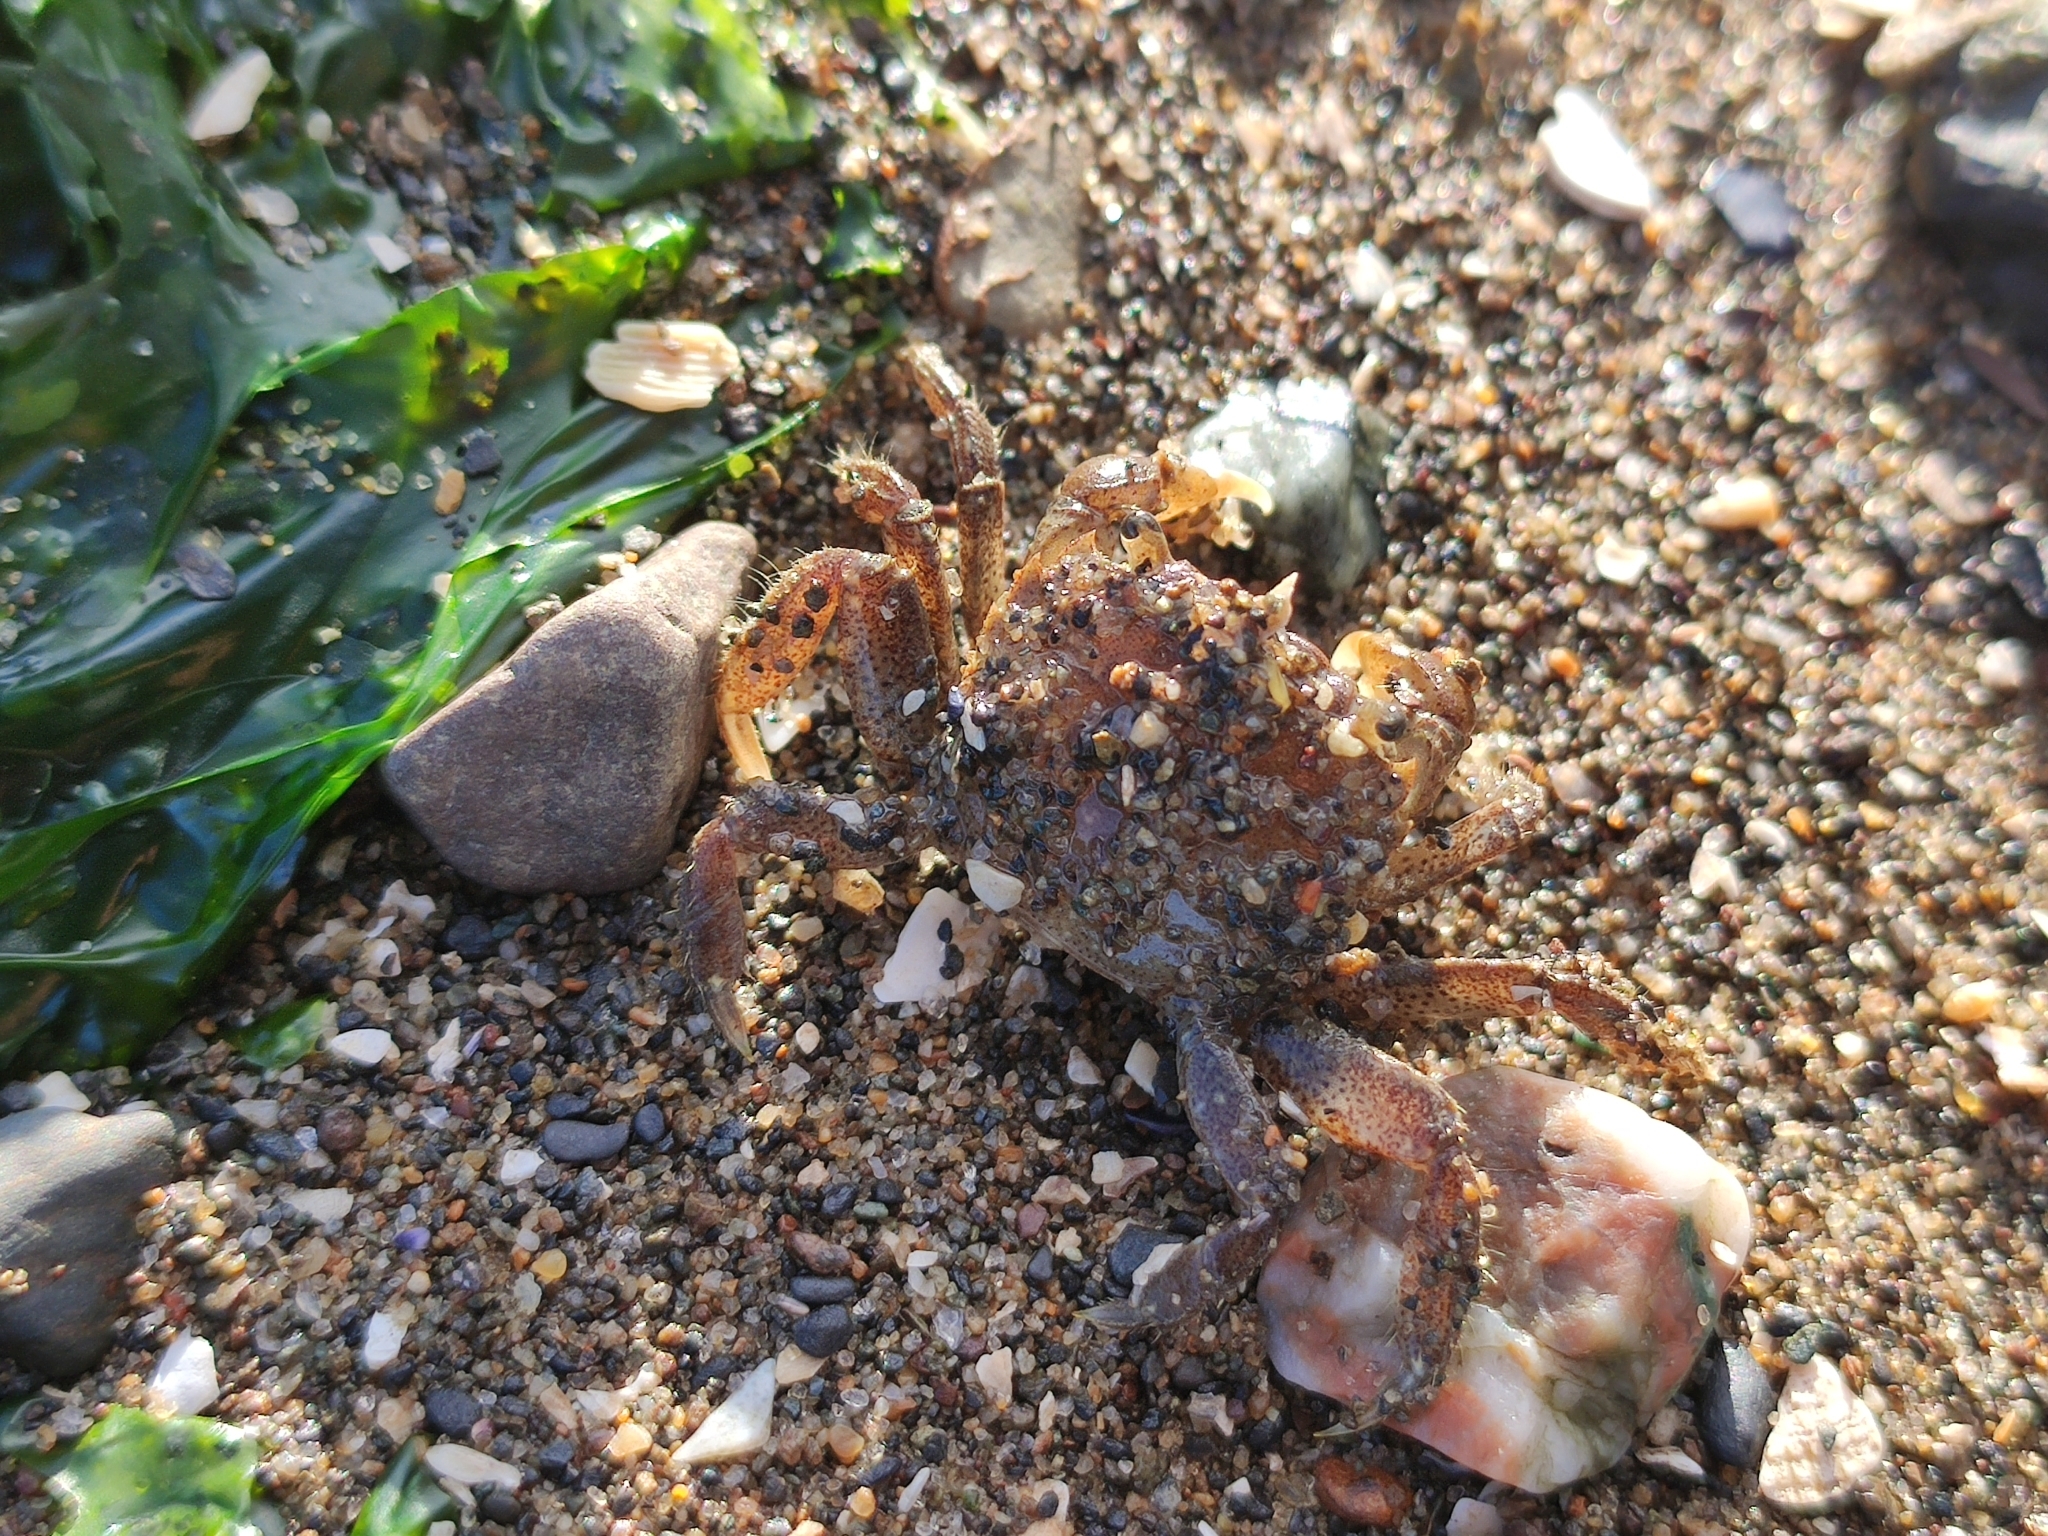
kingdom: Animalia
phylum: Arthropoda
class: Malacostraca
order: Decapoda
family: Varunidae
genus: Hemigrapsus
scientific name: Hemigrapsus oregonensis
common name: Yellow shore crab
